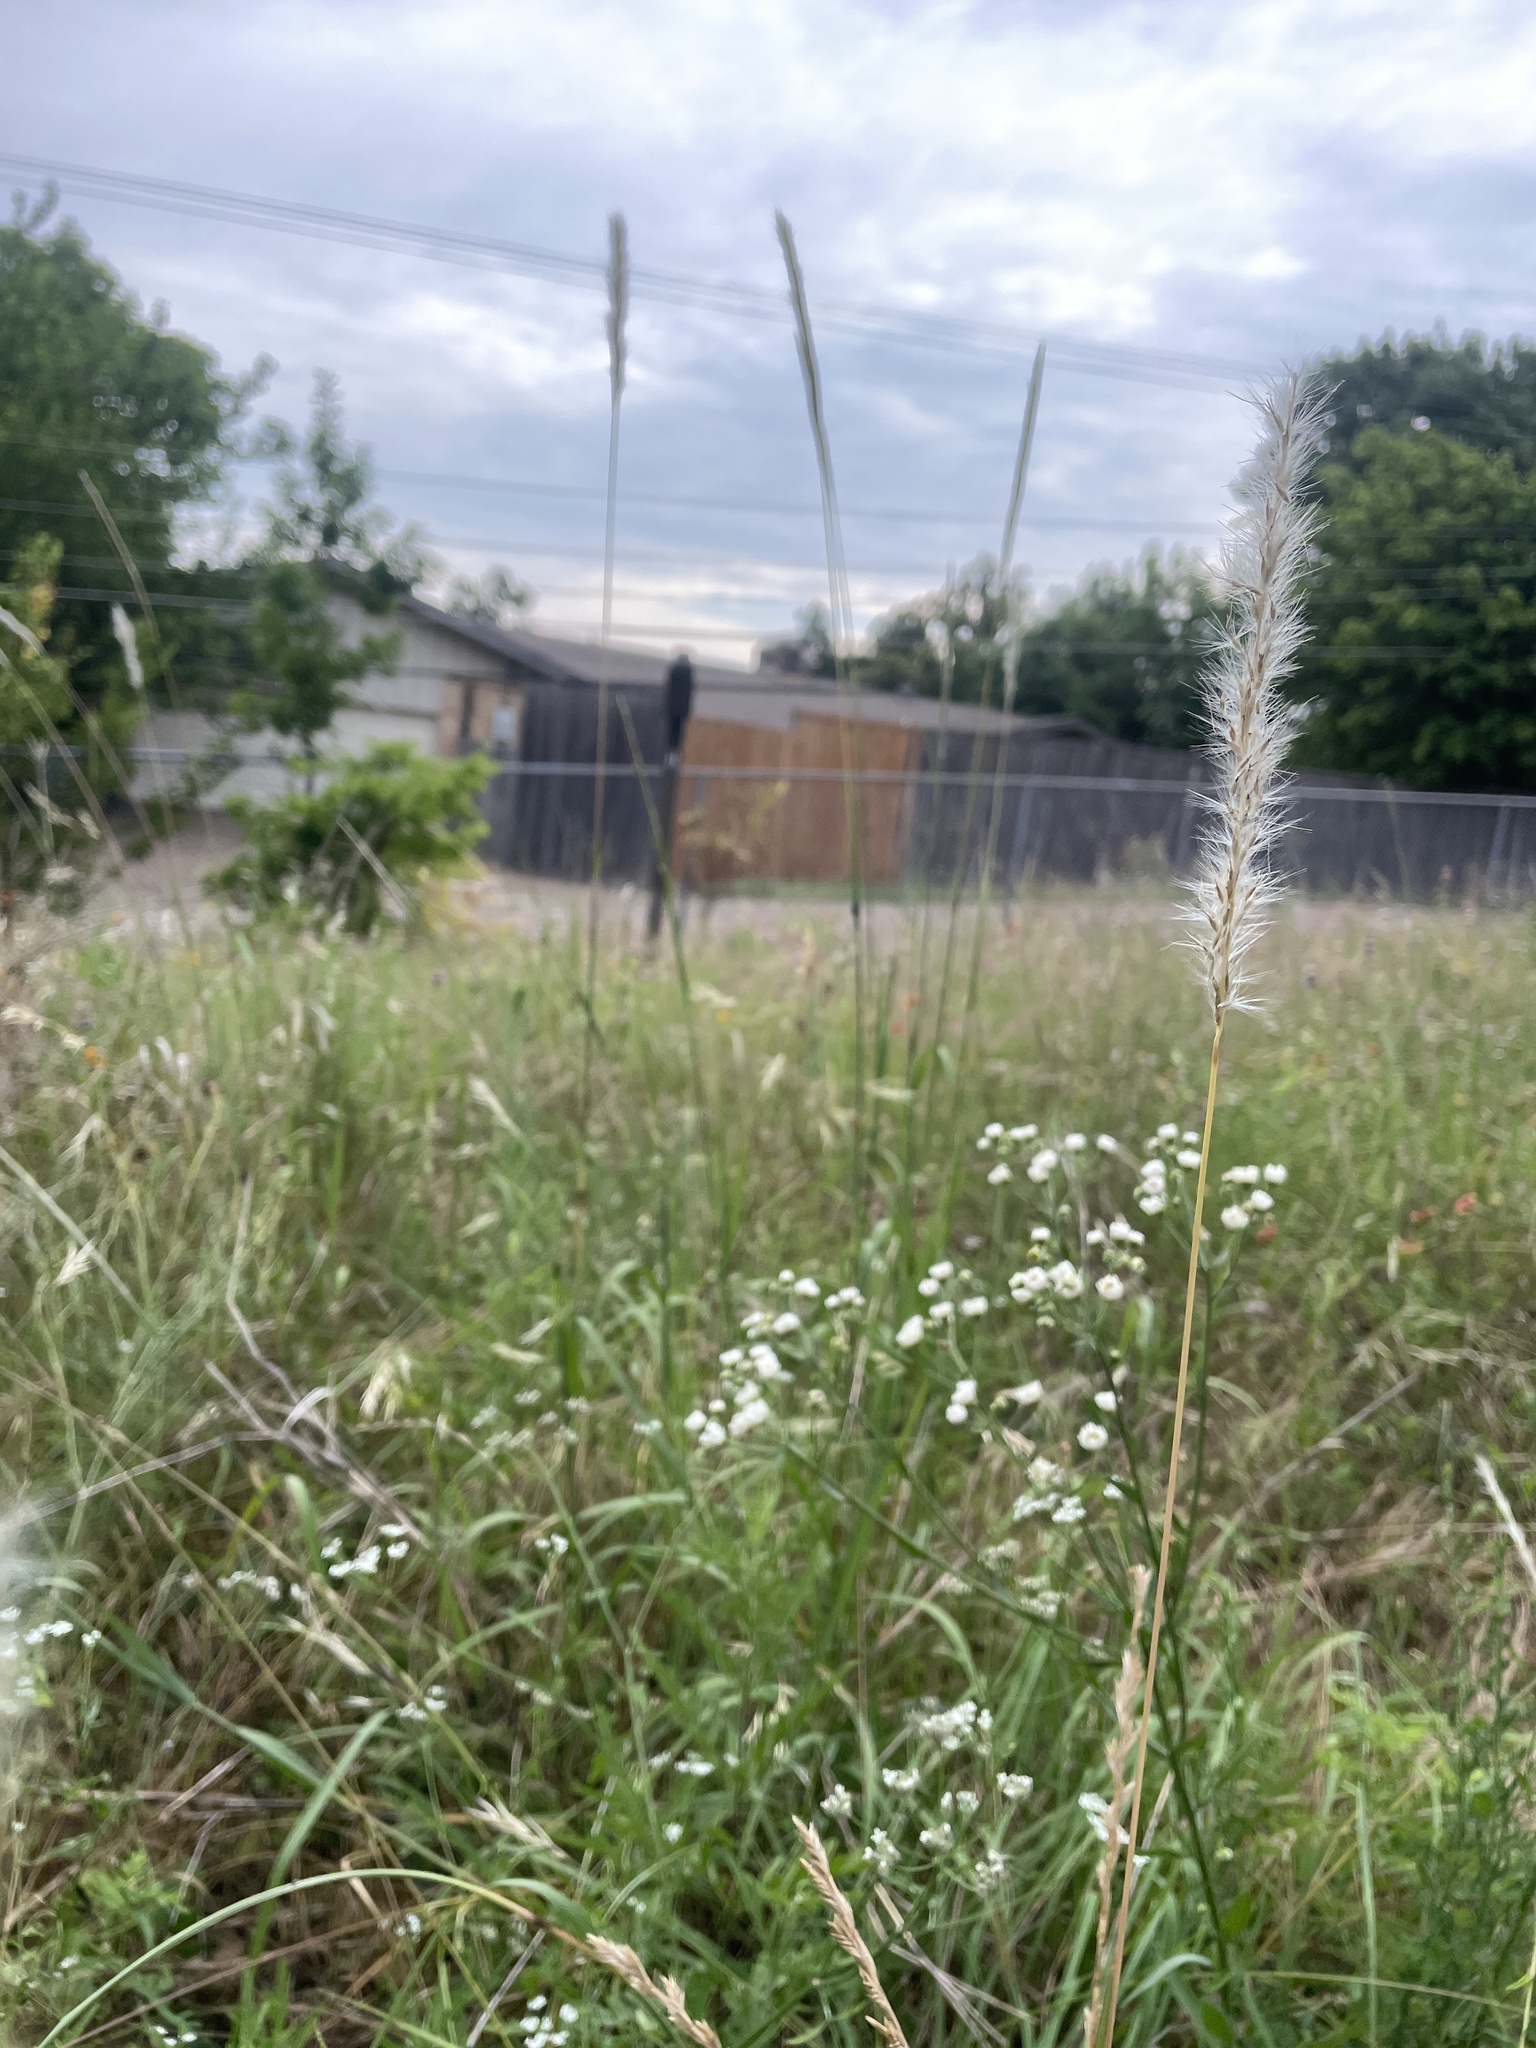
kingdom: Plantae
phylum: Tracheophyta
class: Liliopsida
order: Poales
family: Poaceae
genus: Bothriochloa
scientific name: Bothriochloa torreyana
